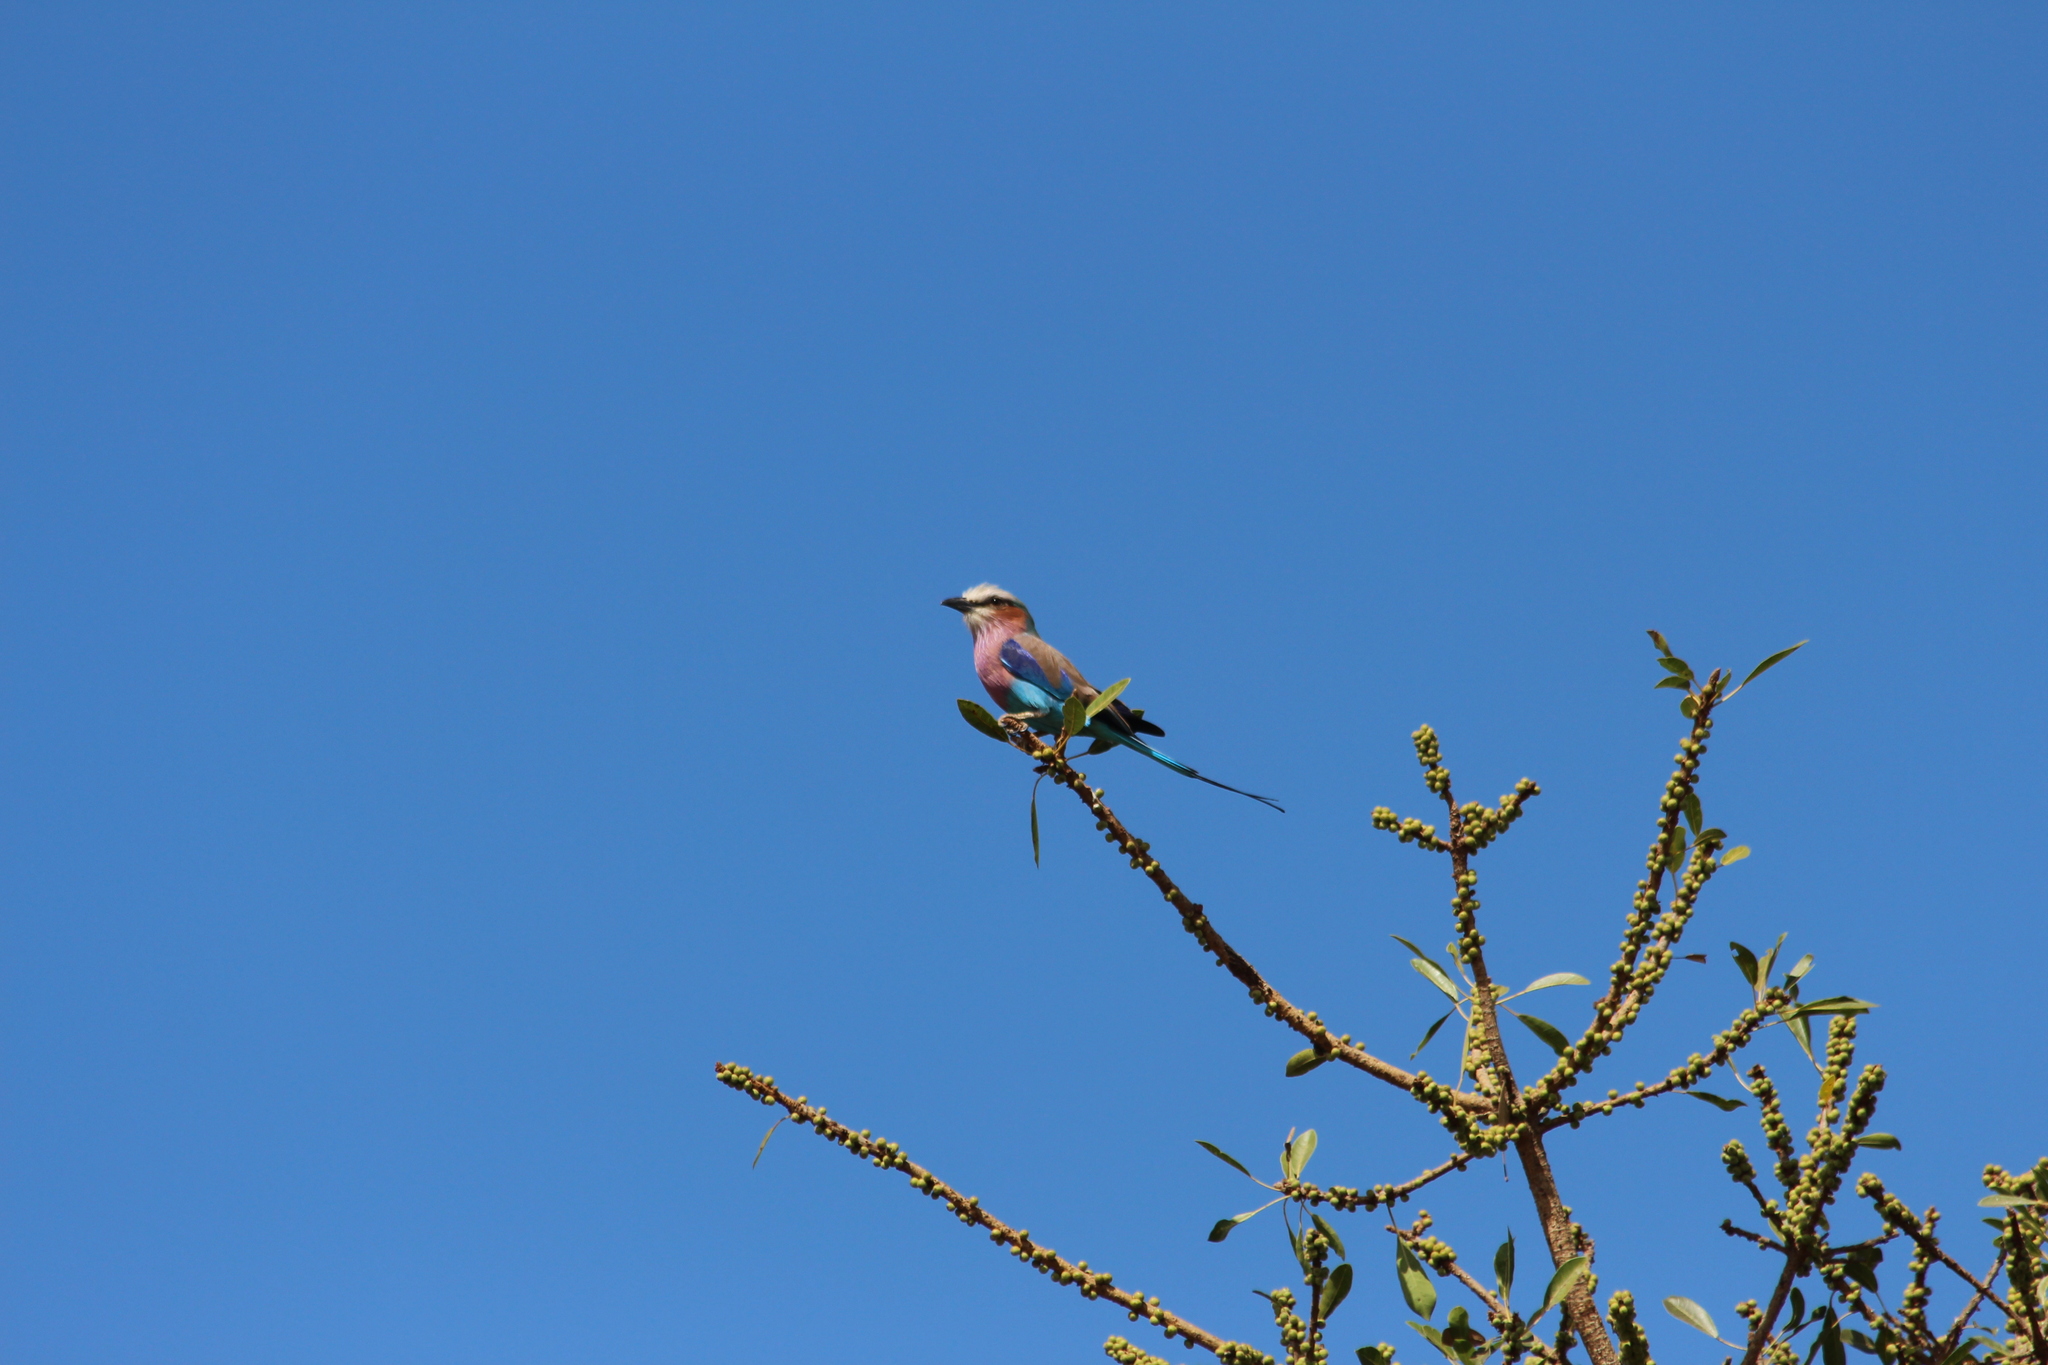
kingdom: Animalia
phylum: Chordata
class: Aves
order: Coraciiformes
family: Coraciidae
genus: Coracias
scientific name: Coracias caudatus
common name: Lilac-breasted roller
